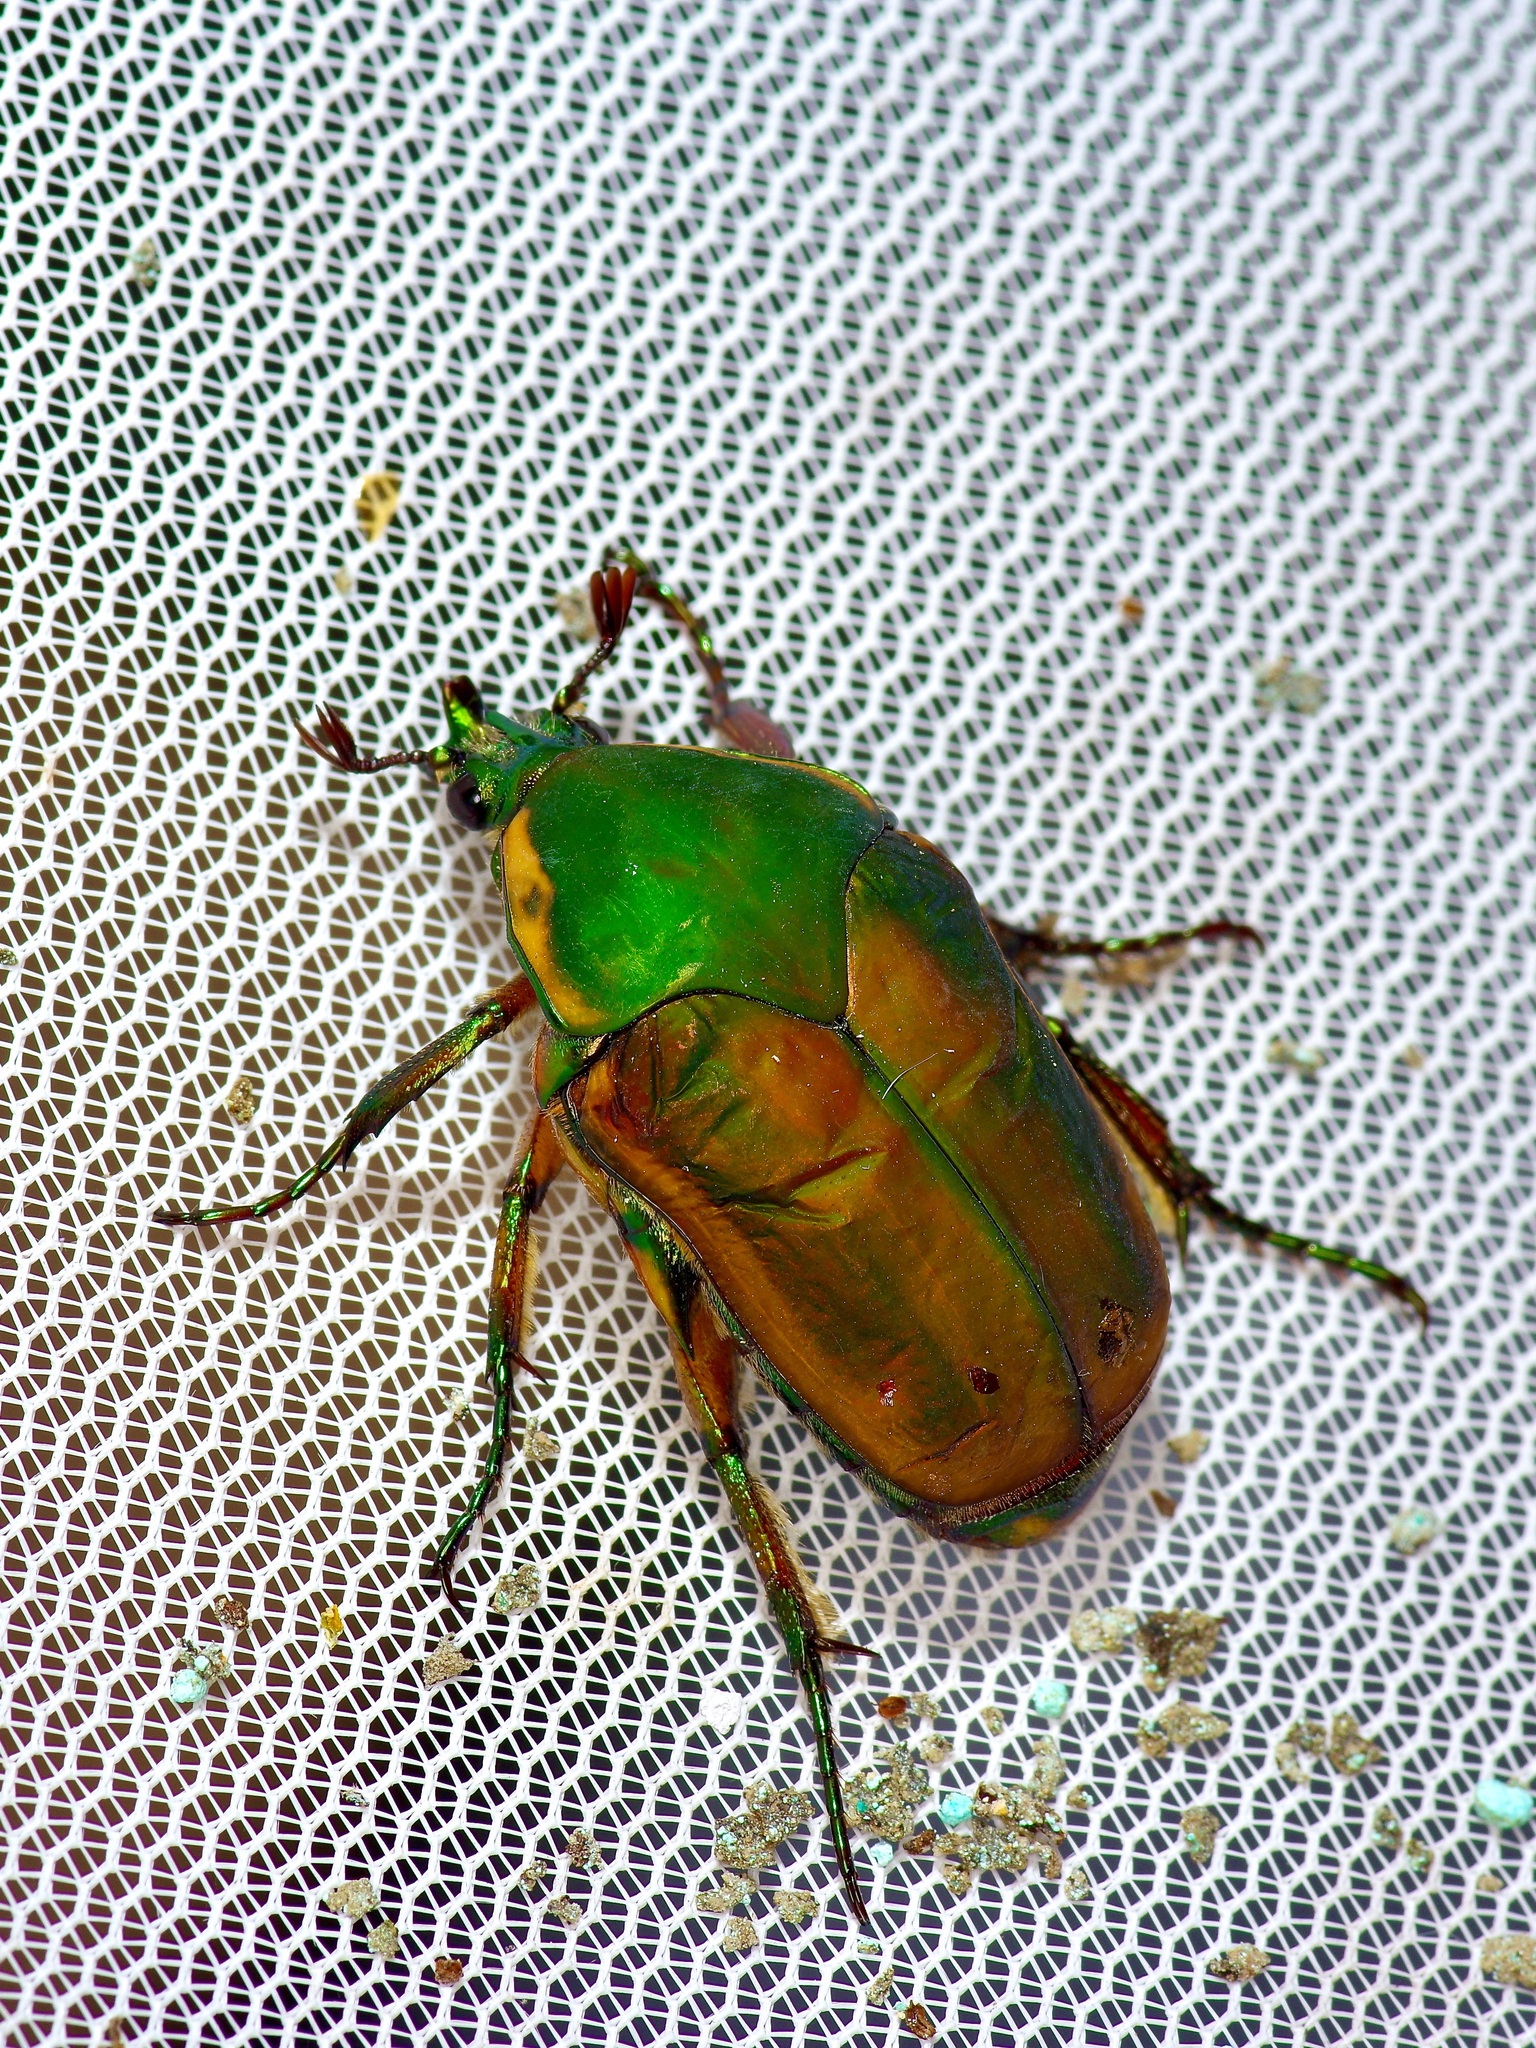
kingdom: Animalia
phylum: Arthropoda
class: Insecta
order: Coleoptera
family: Scarabaeidae
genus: Cotinis
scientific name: Cotinis nitida
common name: Common green june beetle
